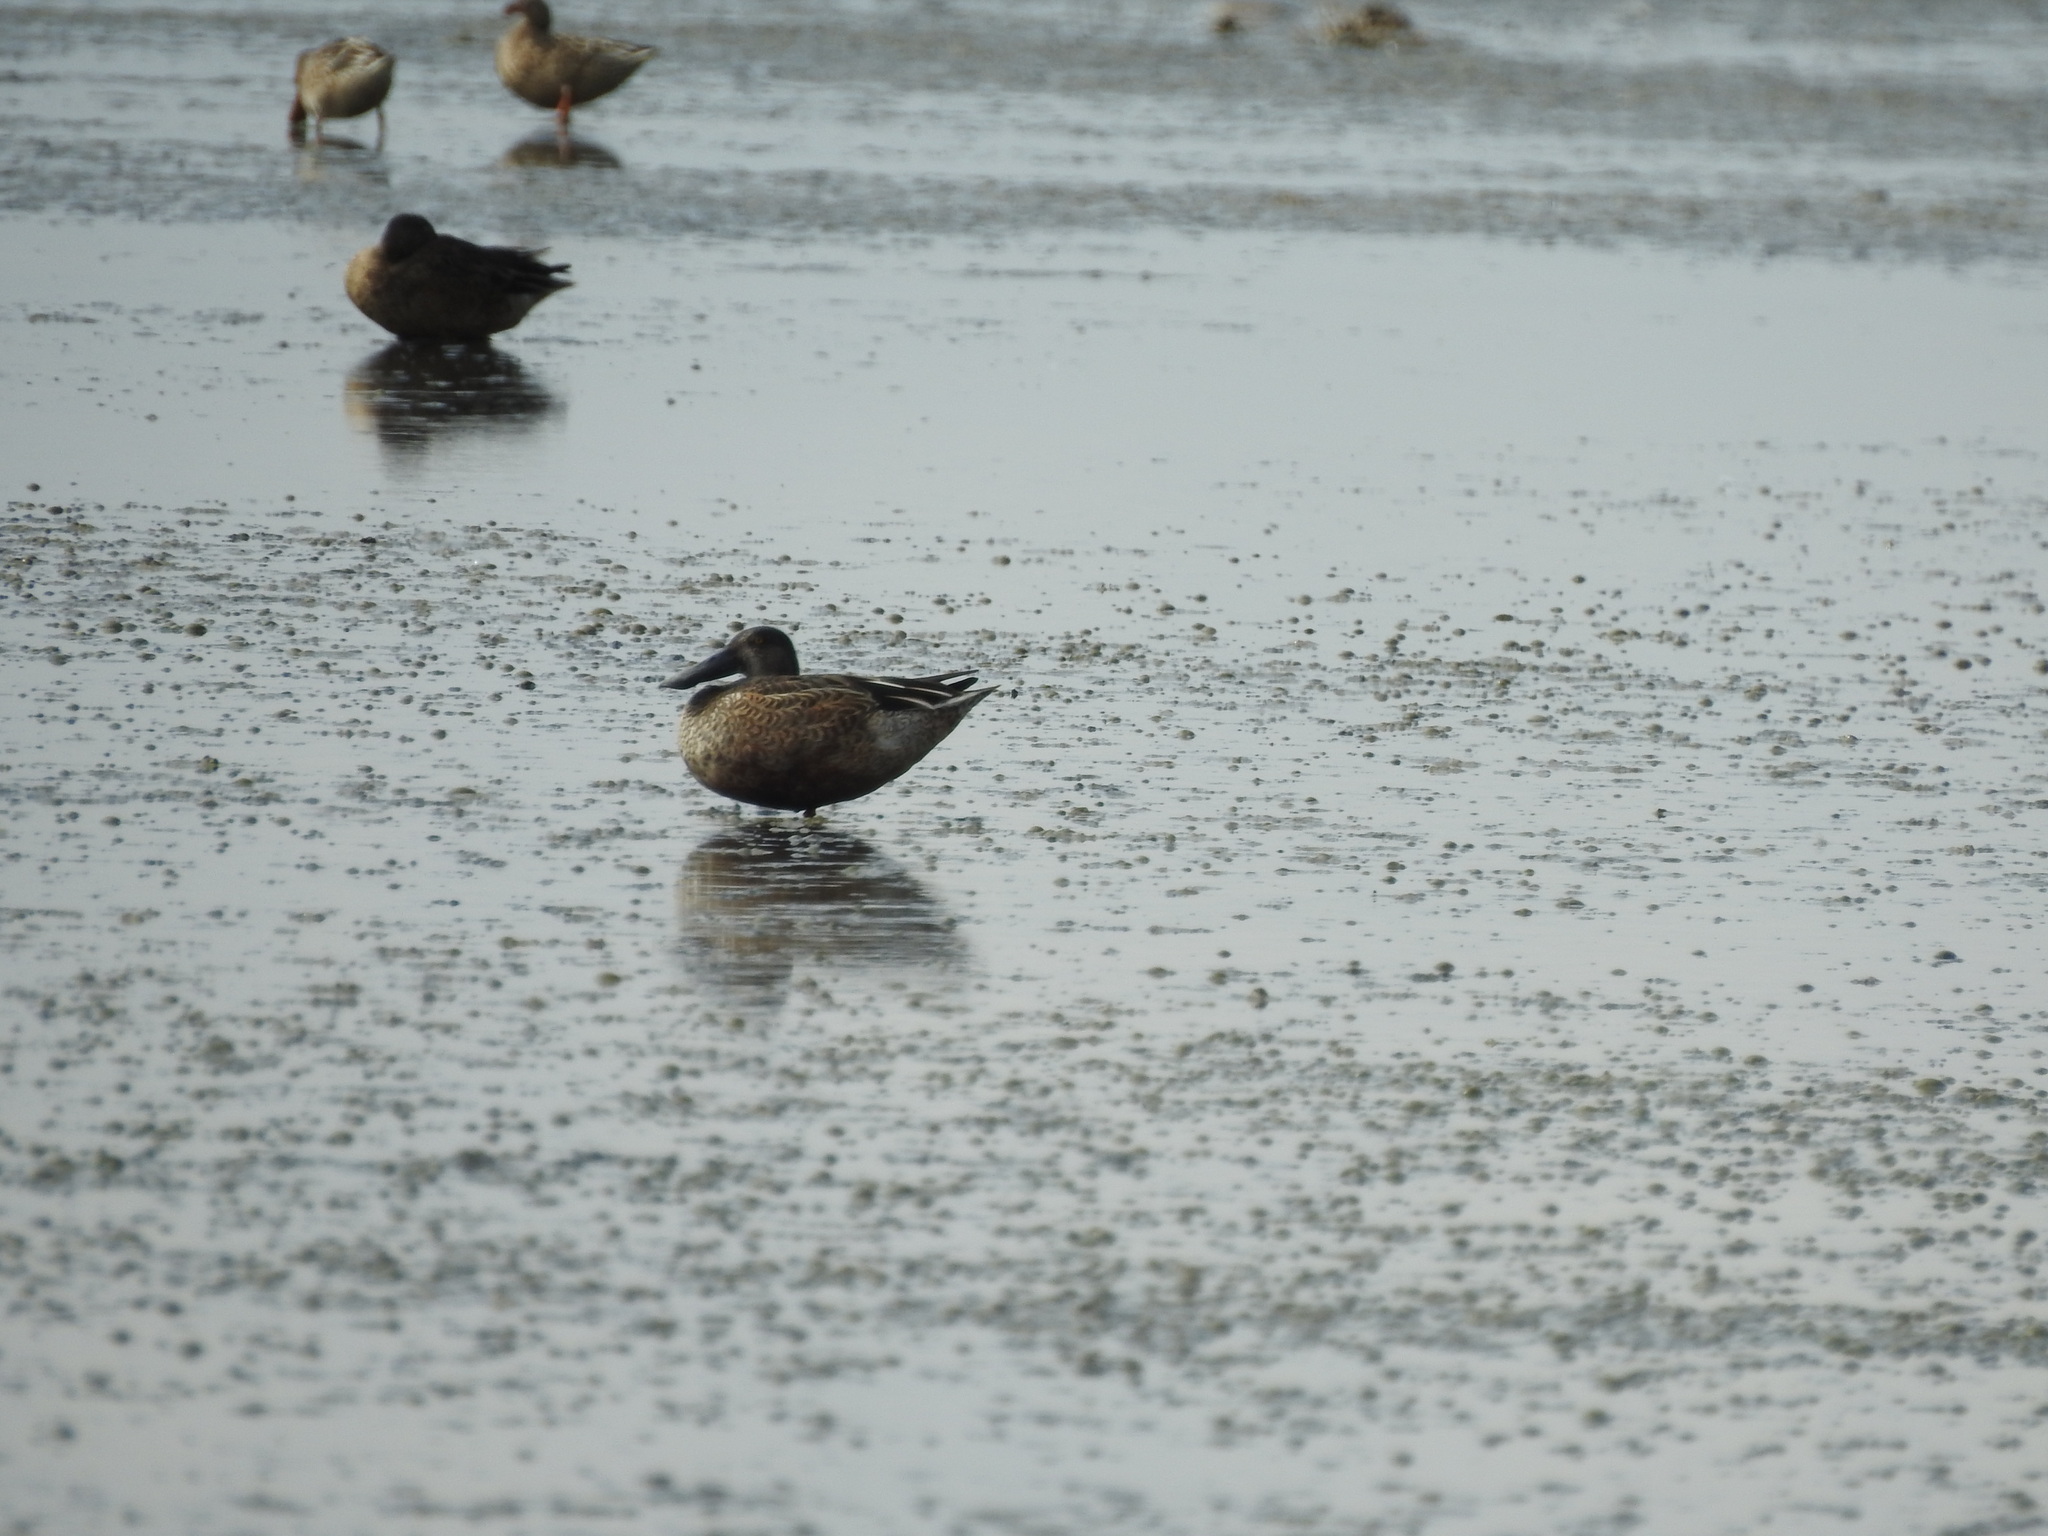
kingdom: Animalia
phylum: Chordata
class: Aves
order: Anseriformes
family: Anatidae
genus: Spatula
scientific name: Spatula clypeata
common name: Northern shoveler
